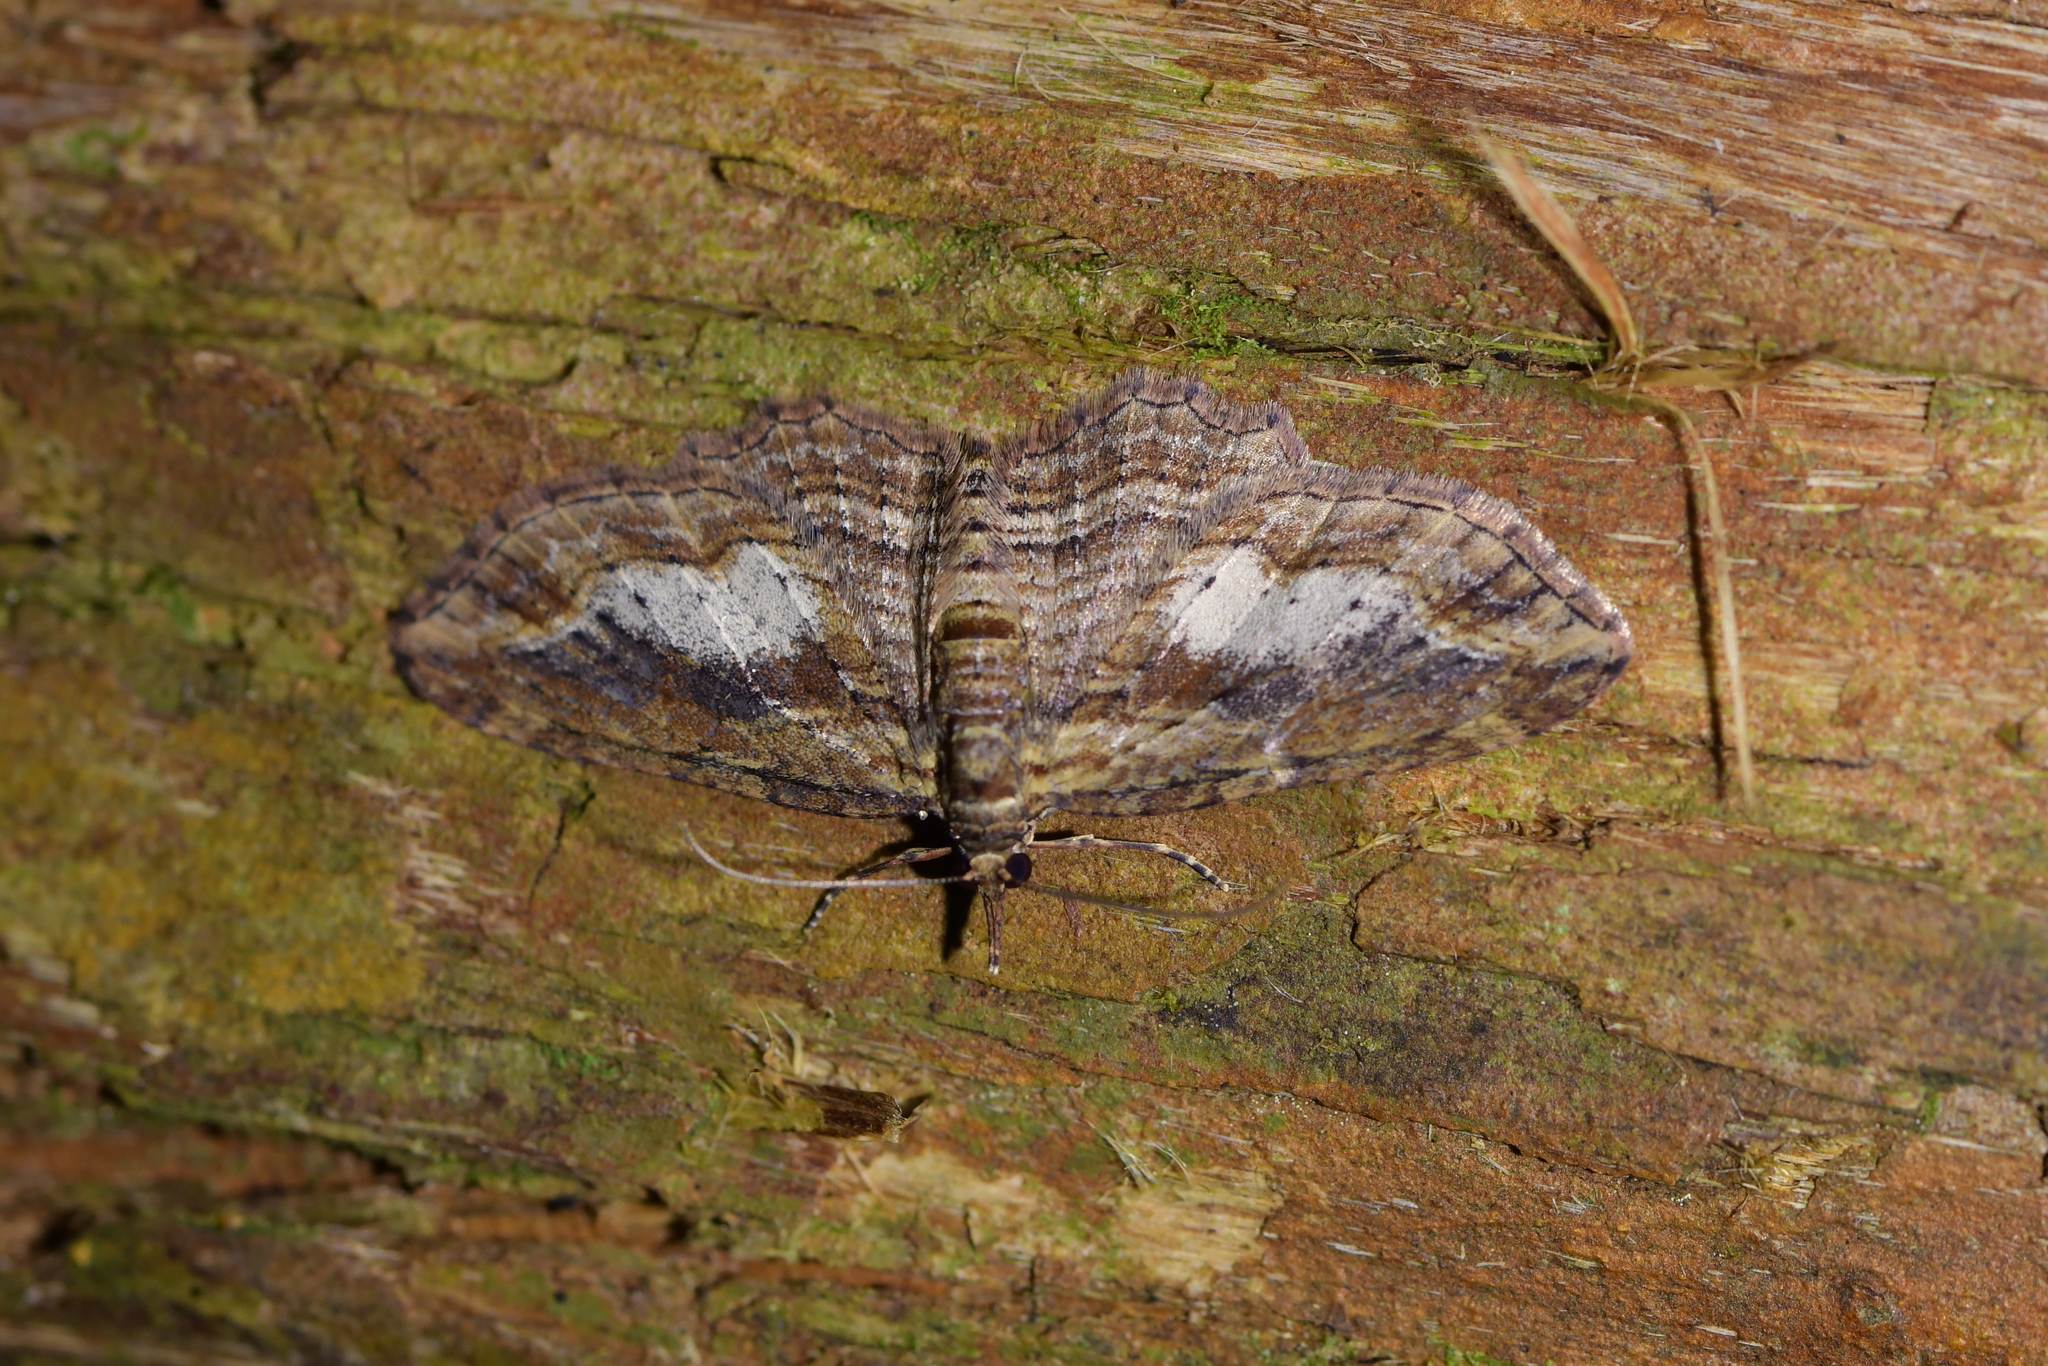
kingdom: Animalia
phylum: Arthropoda
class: Insecta
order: Lepidoptera
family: Geometridae
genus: Chloroclystis
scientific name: Chloroclystis filata
